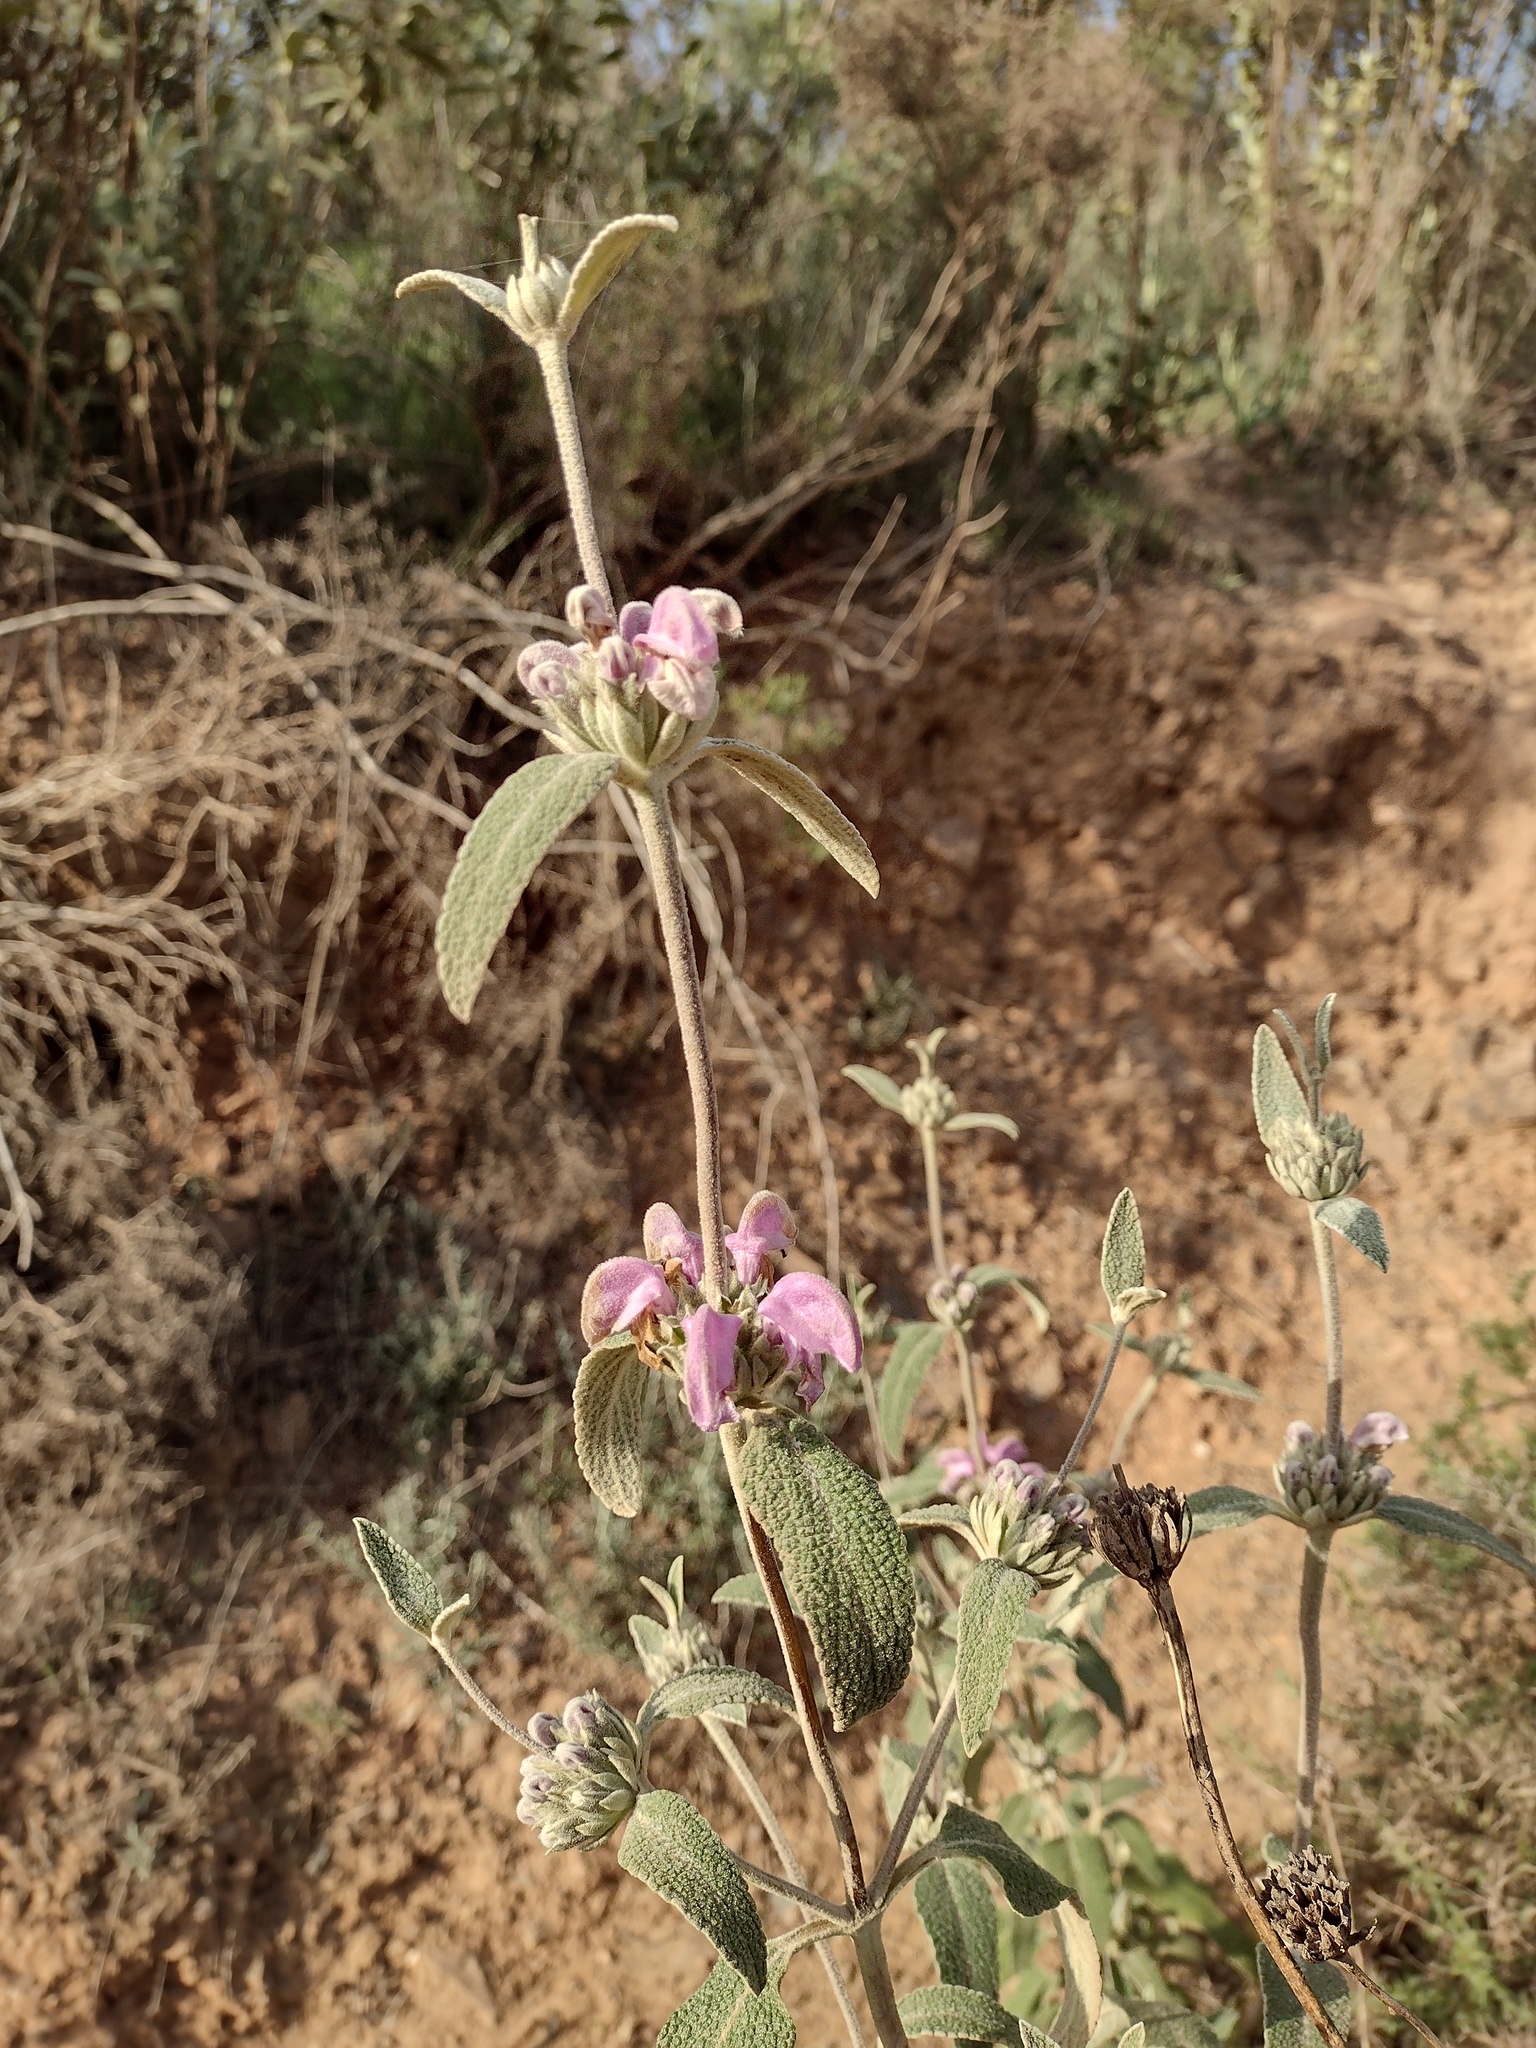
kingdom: Plantae
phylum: Tracheophyta
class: Magnoliopsida
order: Lamiales
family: Lamiaceae
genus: Phlomis
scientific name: Phlomis purpurea
